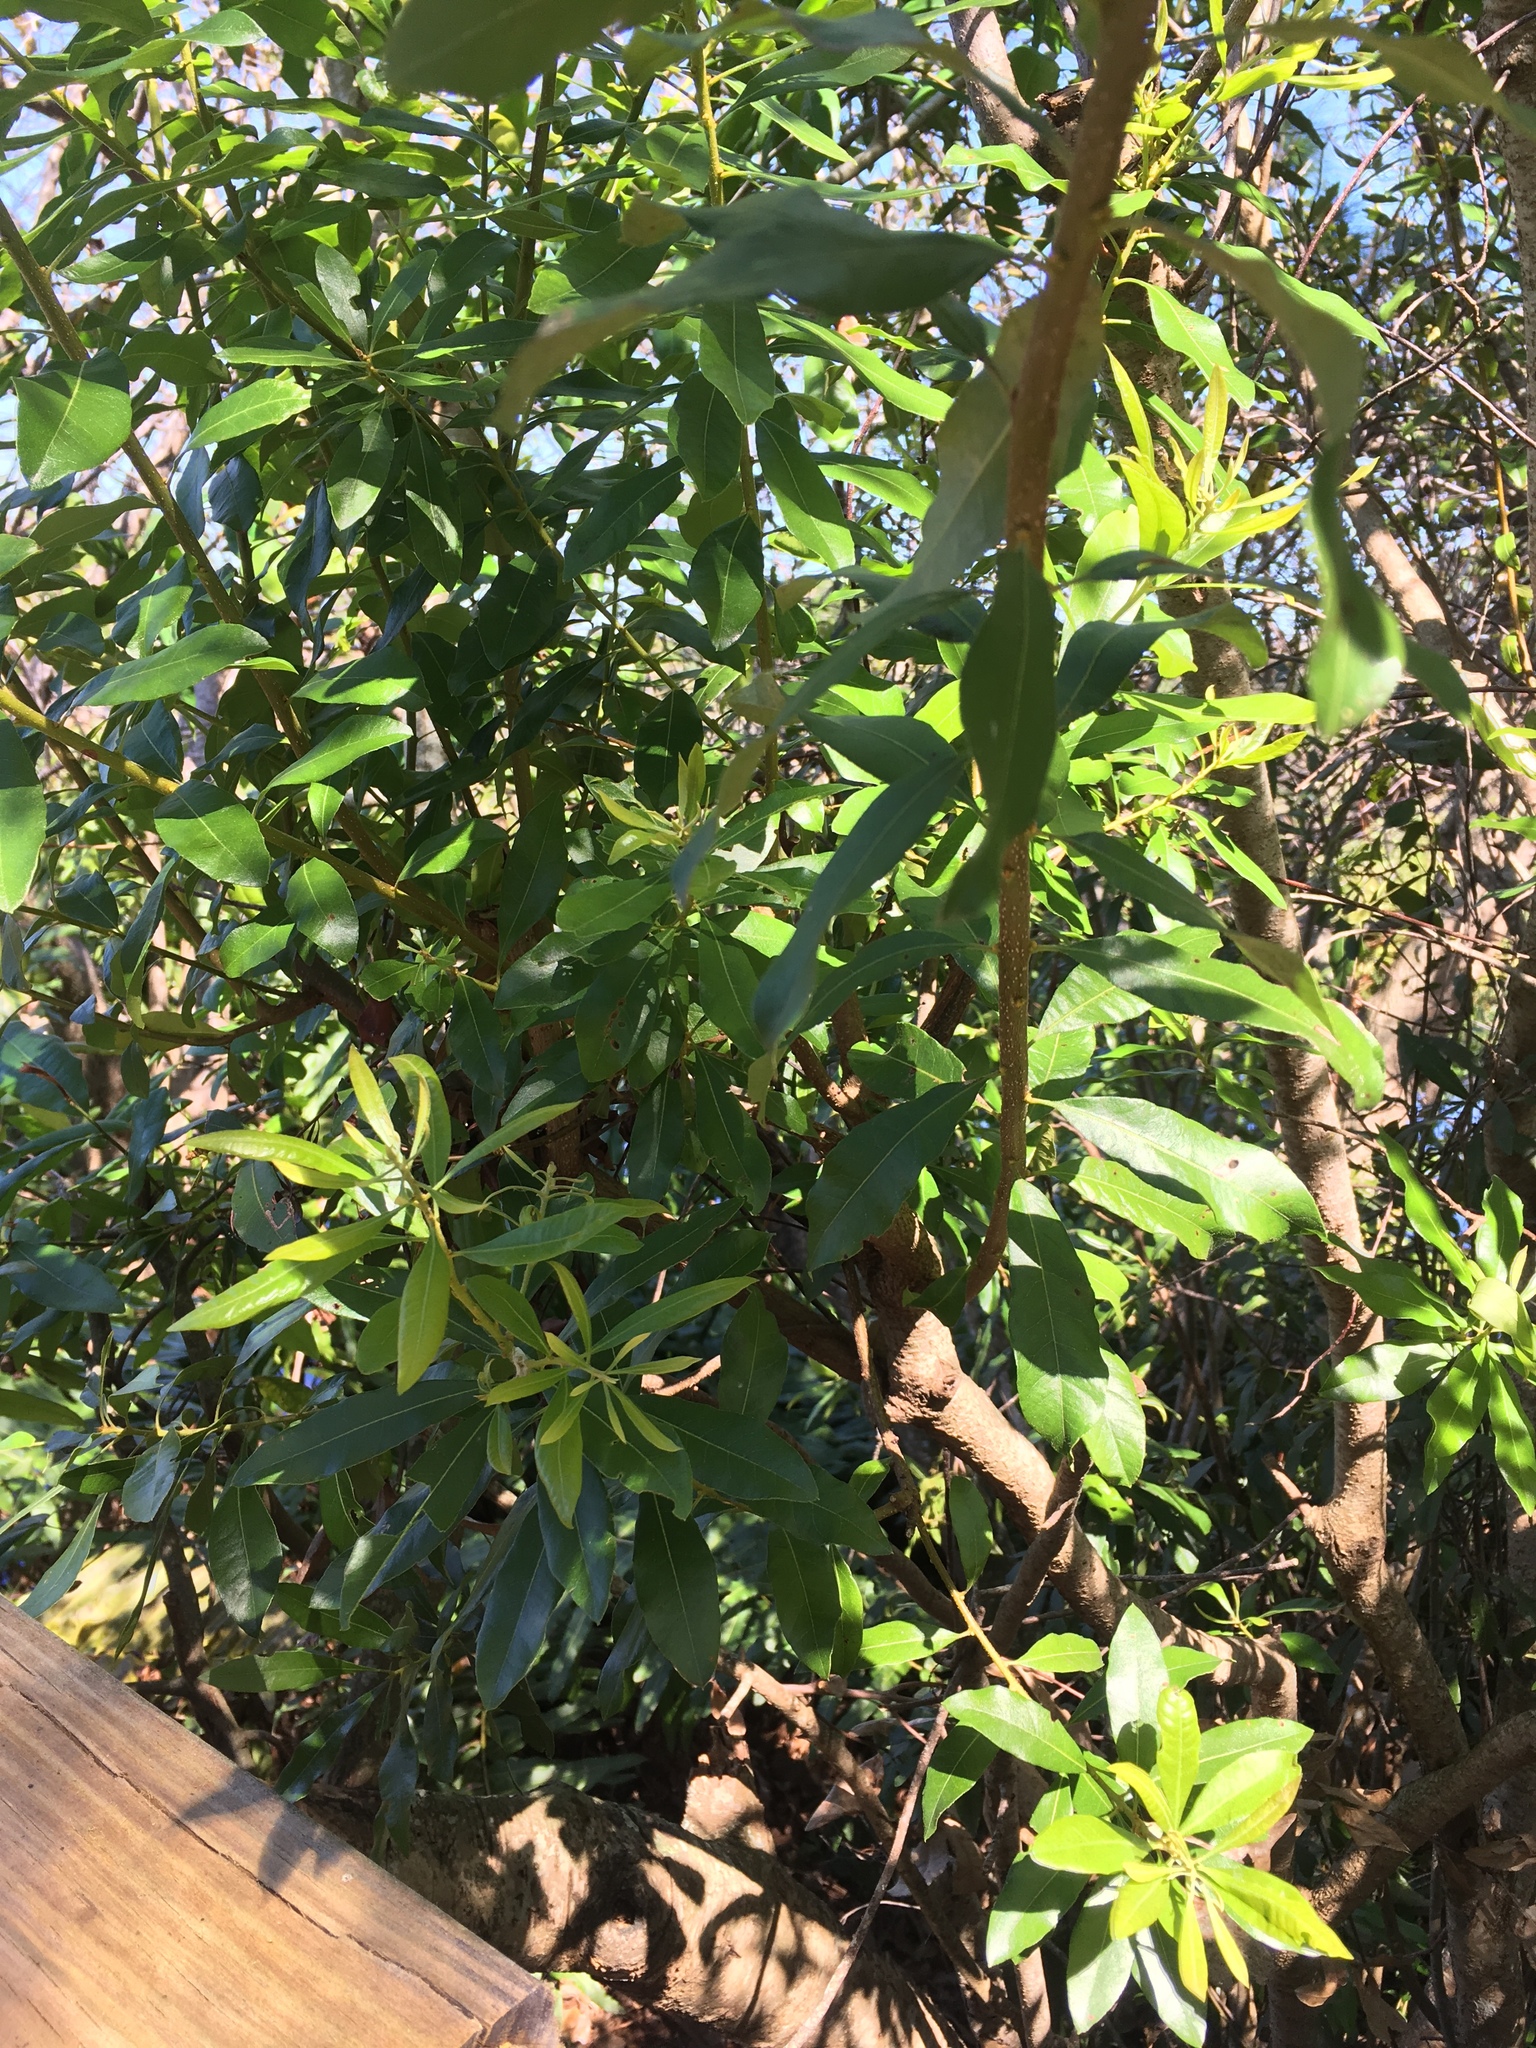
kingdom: Plantae
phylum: Tracheophyta
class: Magnoliopsida
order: Fagales
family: Myricaceae
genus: Morella
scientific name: Morella cerifera
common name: Wax myrtle
